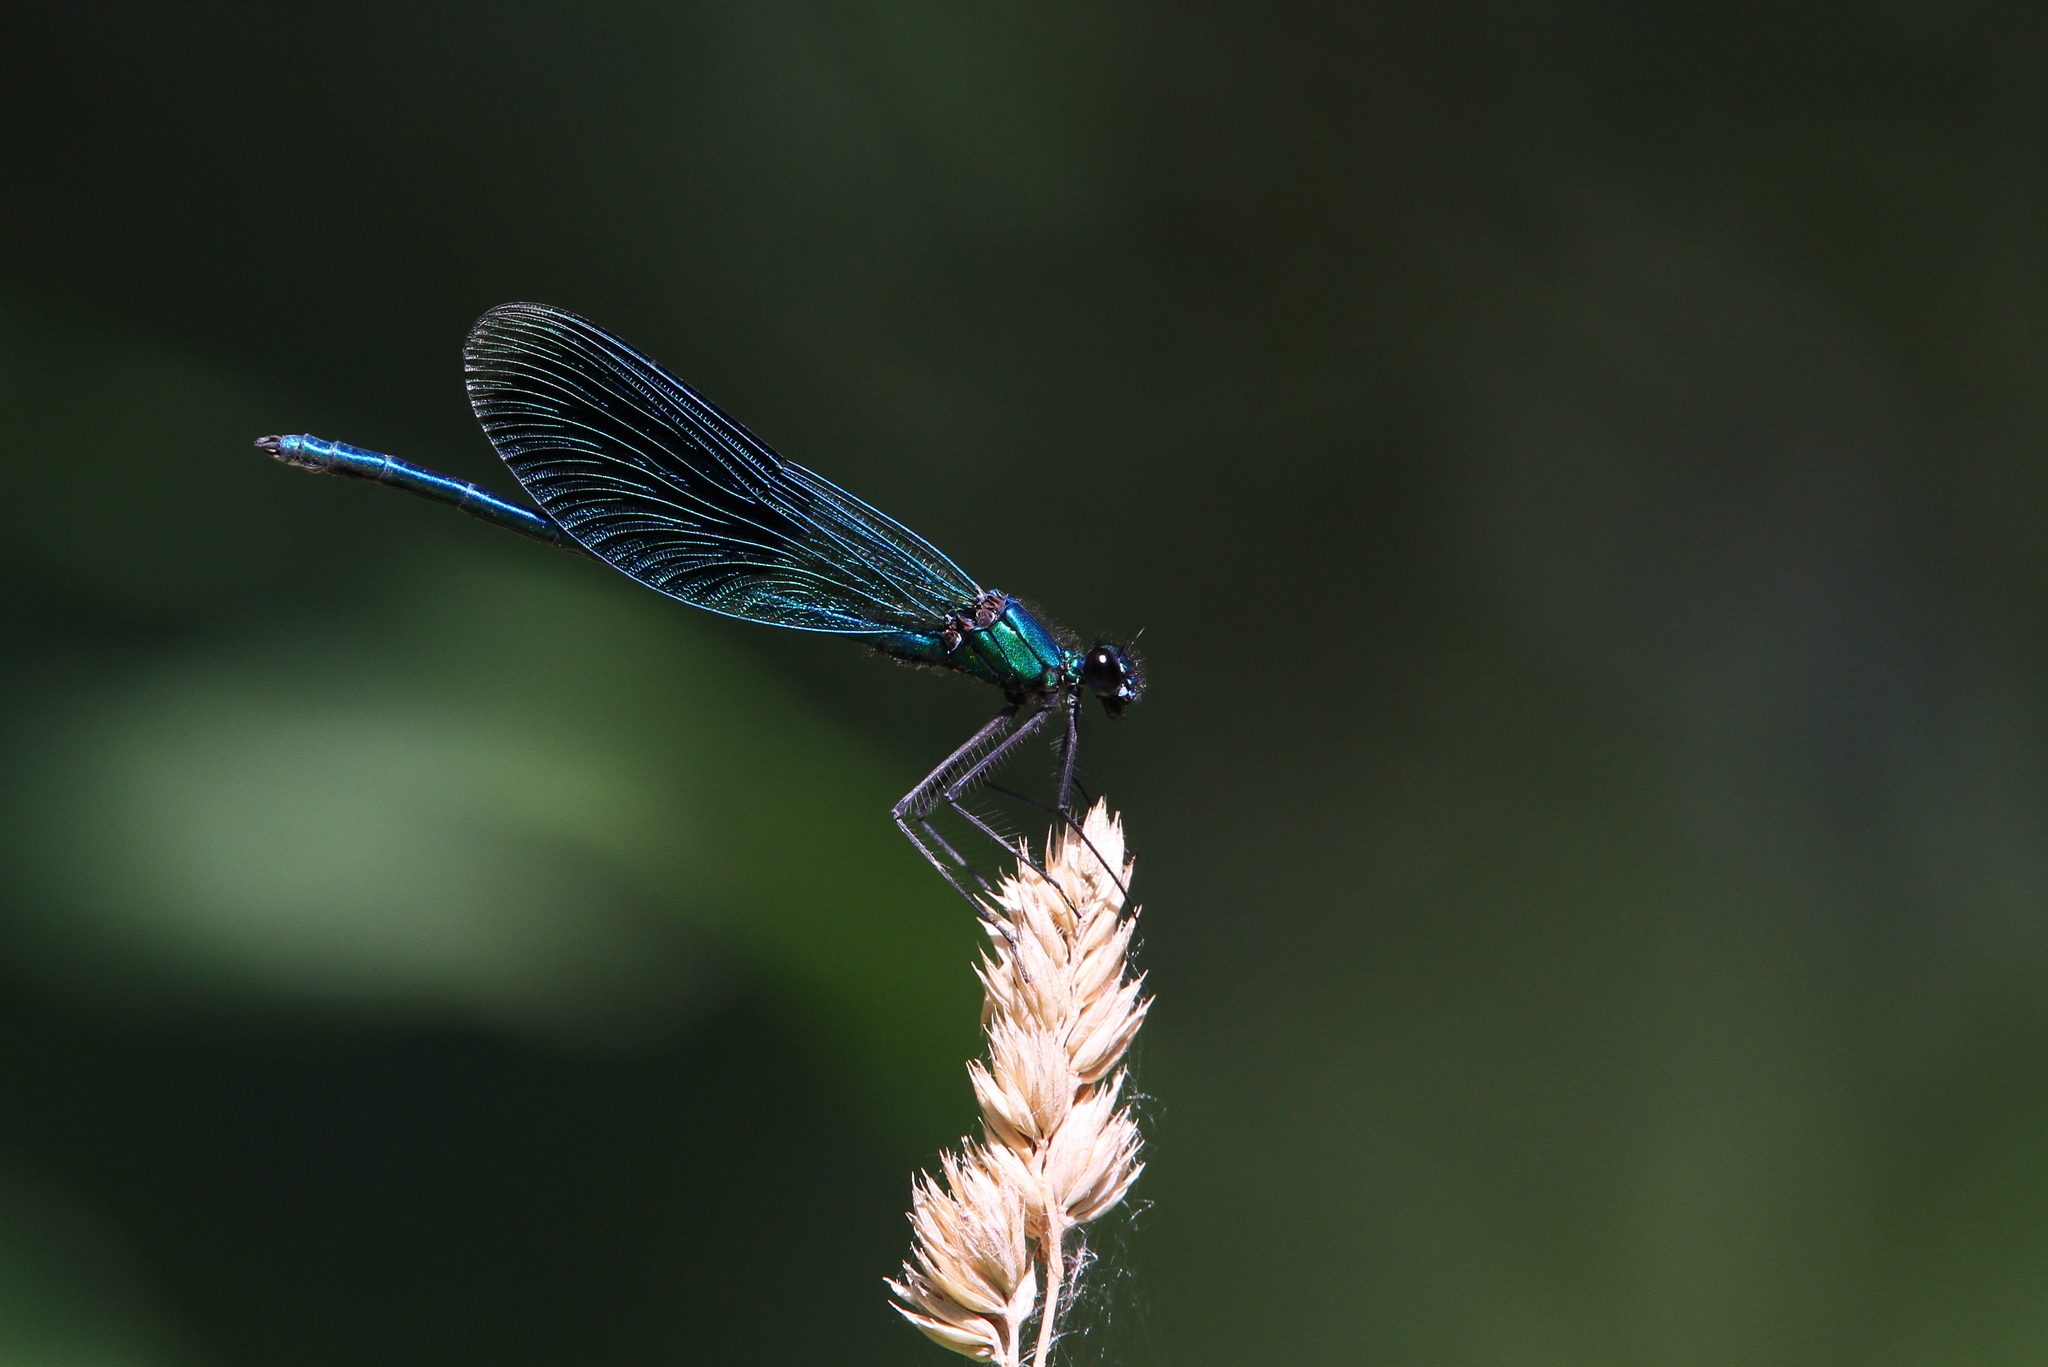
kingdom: Animalia
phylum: Arthropoda
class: Insecta
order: Odonata
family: Calopterygidae
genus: Calopteryx
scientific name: Calopteryx splendens
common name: Banded demoiselle
